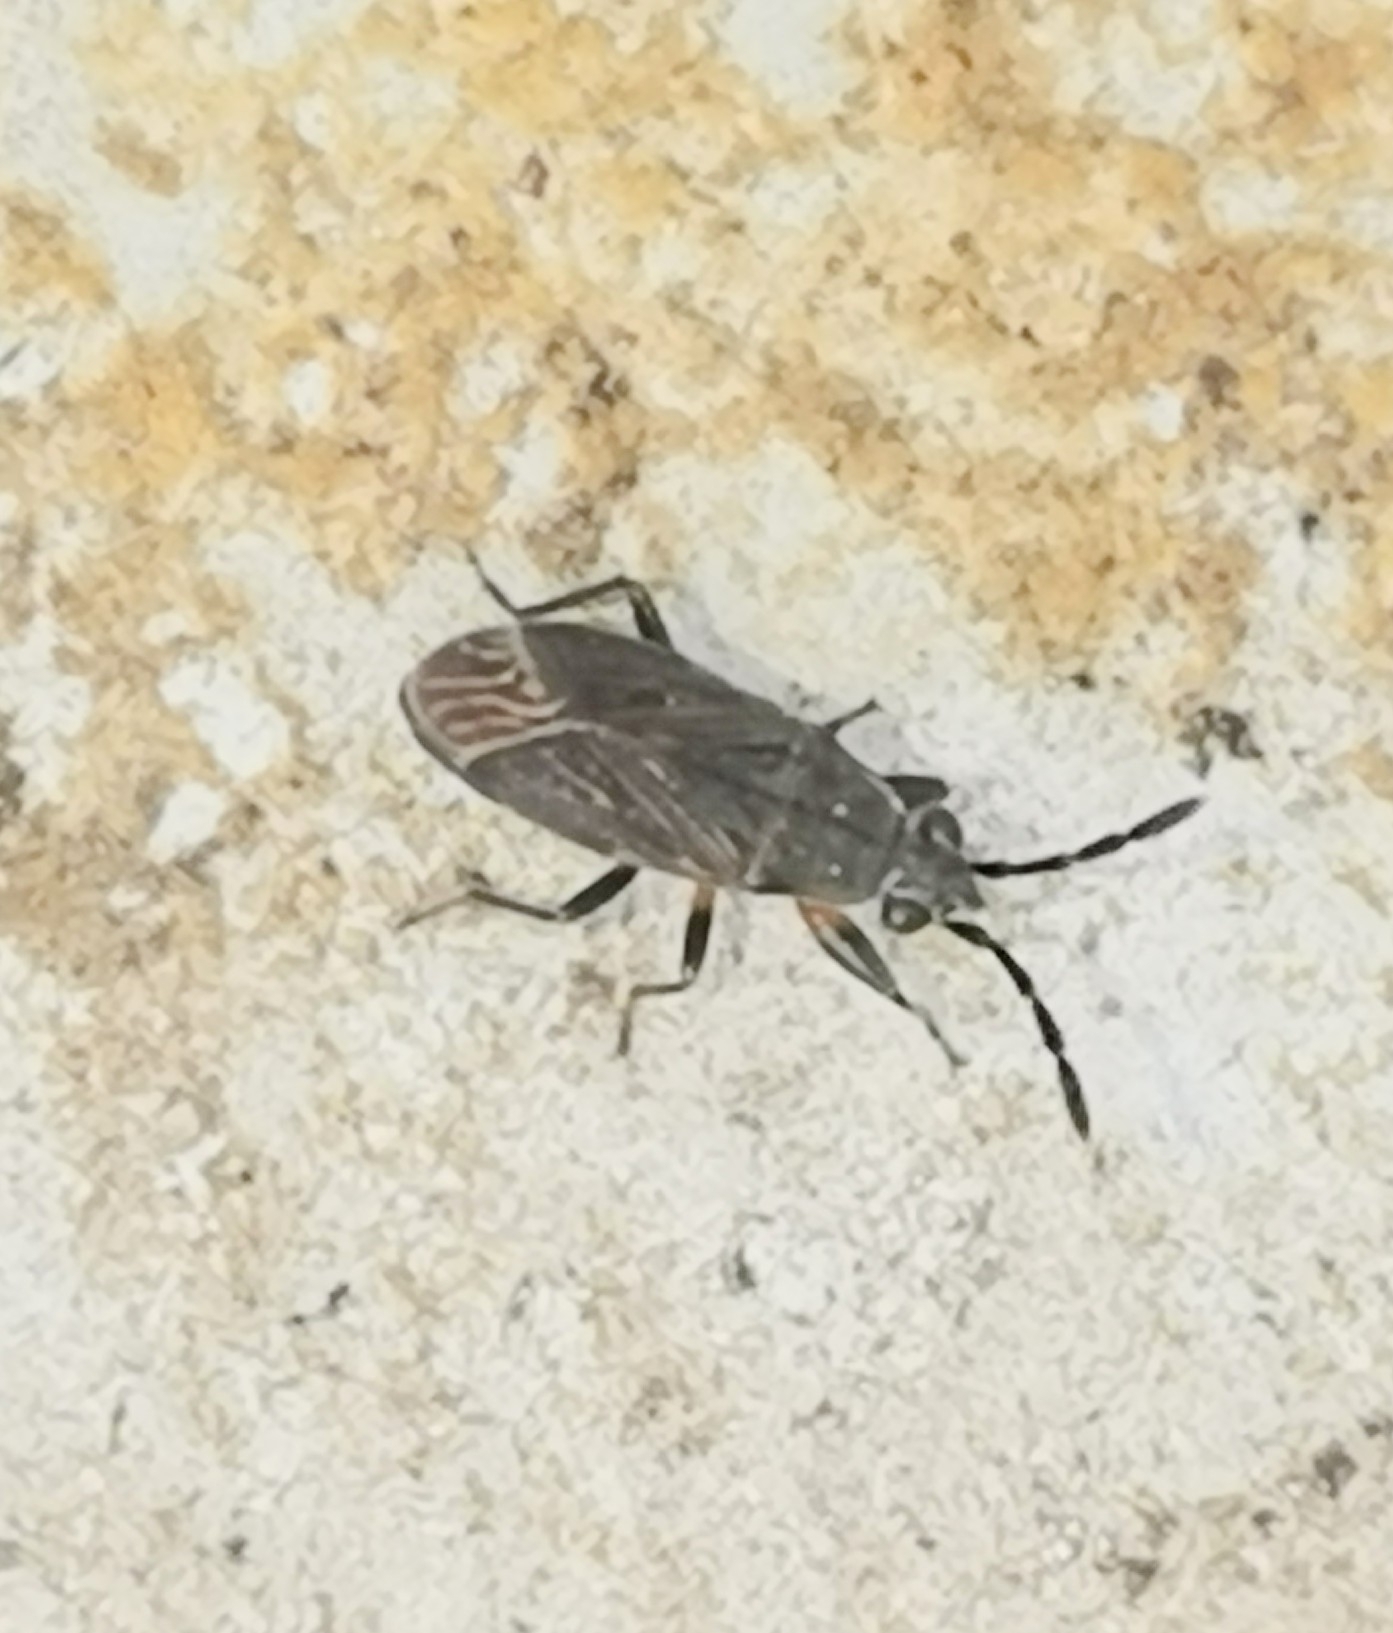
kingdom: Animalia
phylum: Arthropoda
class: Insecta
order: Hemiptera
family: Rhyparochromidae
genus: Peritrechus
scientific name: Peritrechus angusticollis
